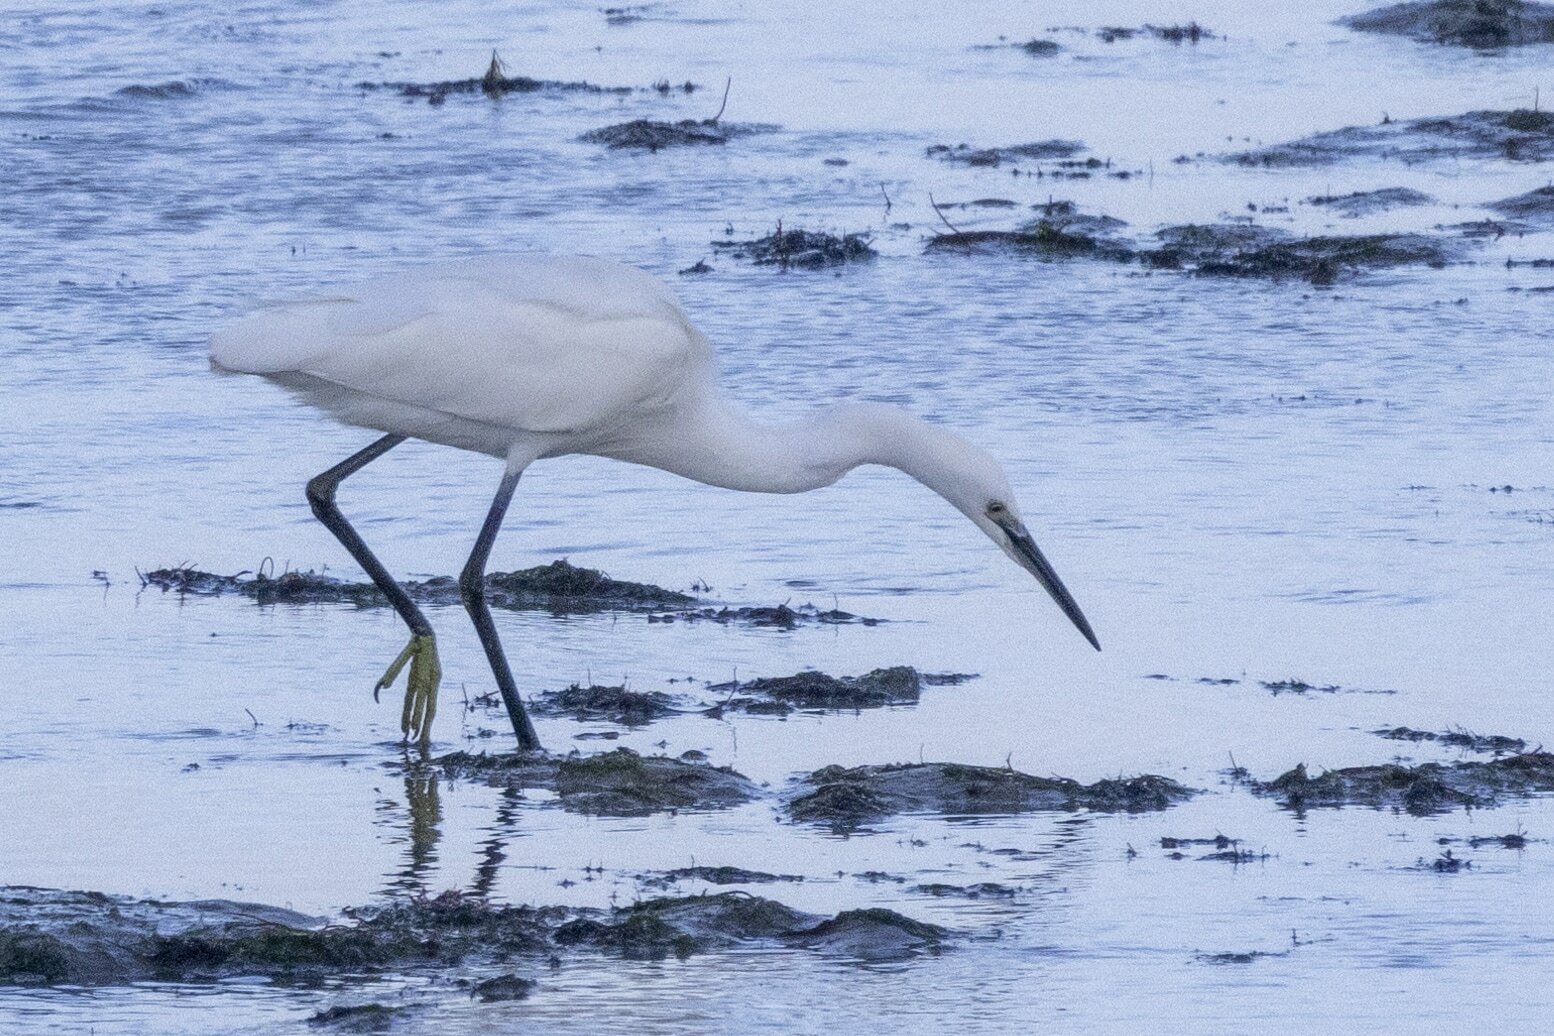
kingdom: Animalia
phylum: Chordata
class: Aves
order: Pelecaniformes
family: Ardeidae
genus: Egretta
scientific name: Egretta garzetta
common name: Little egret
